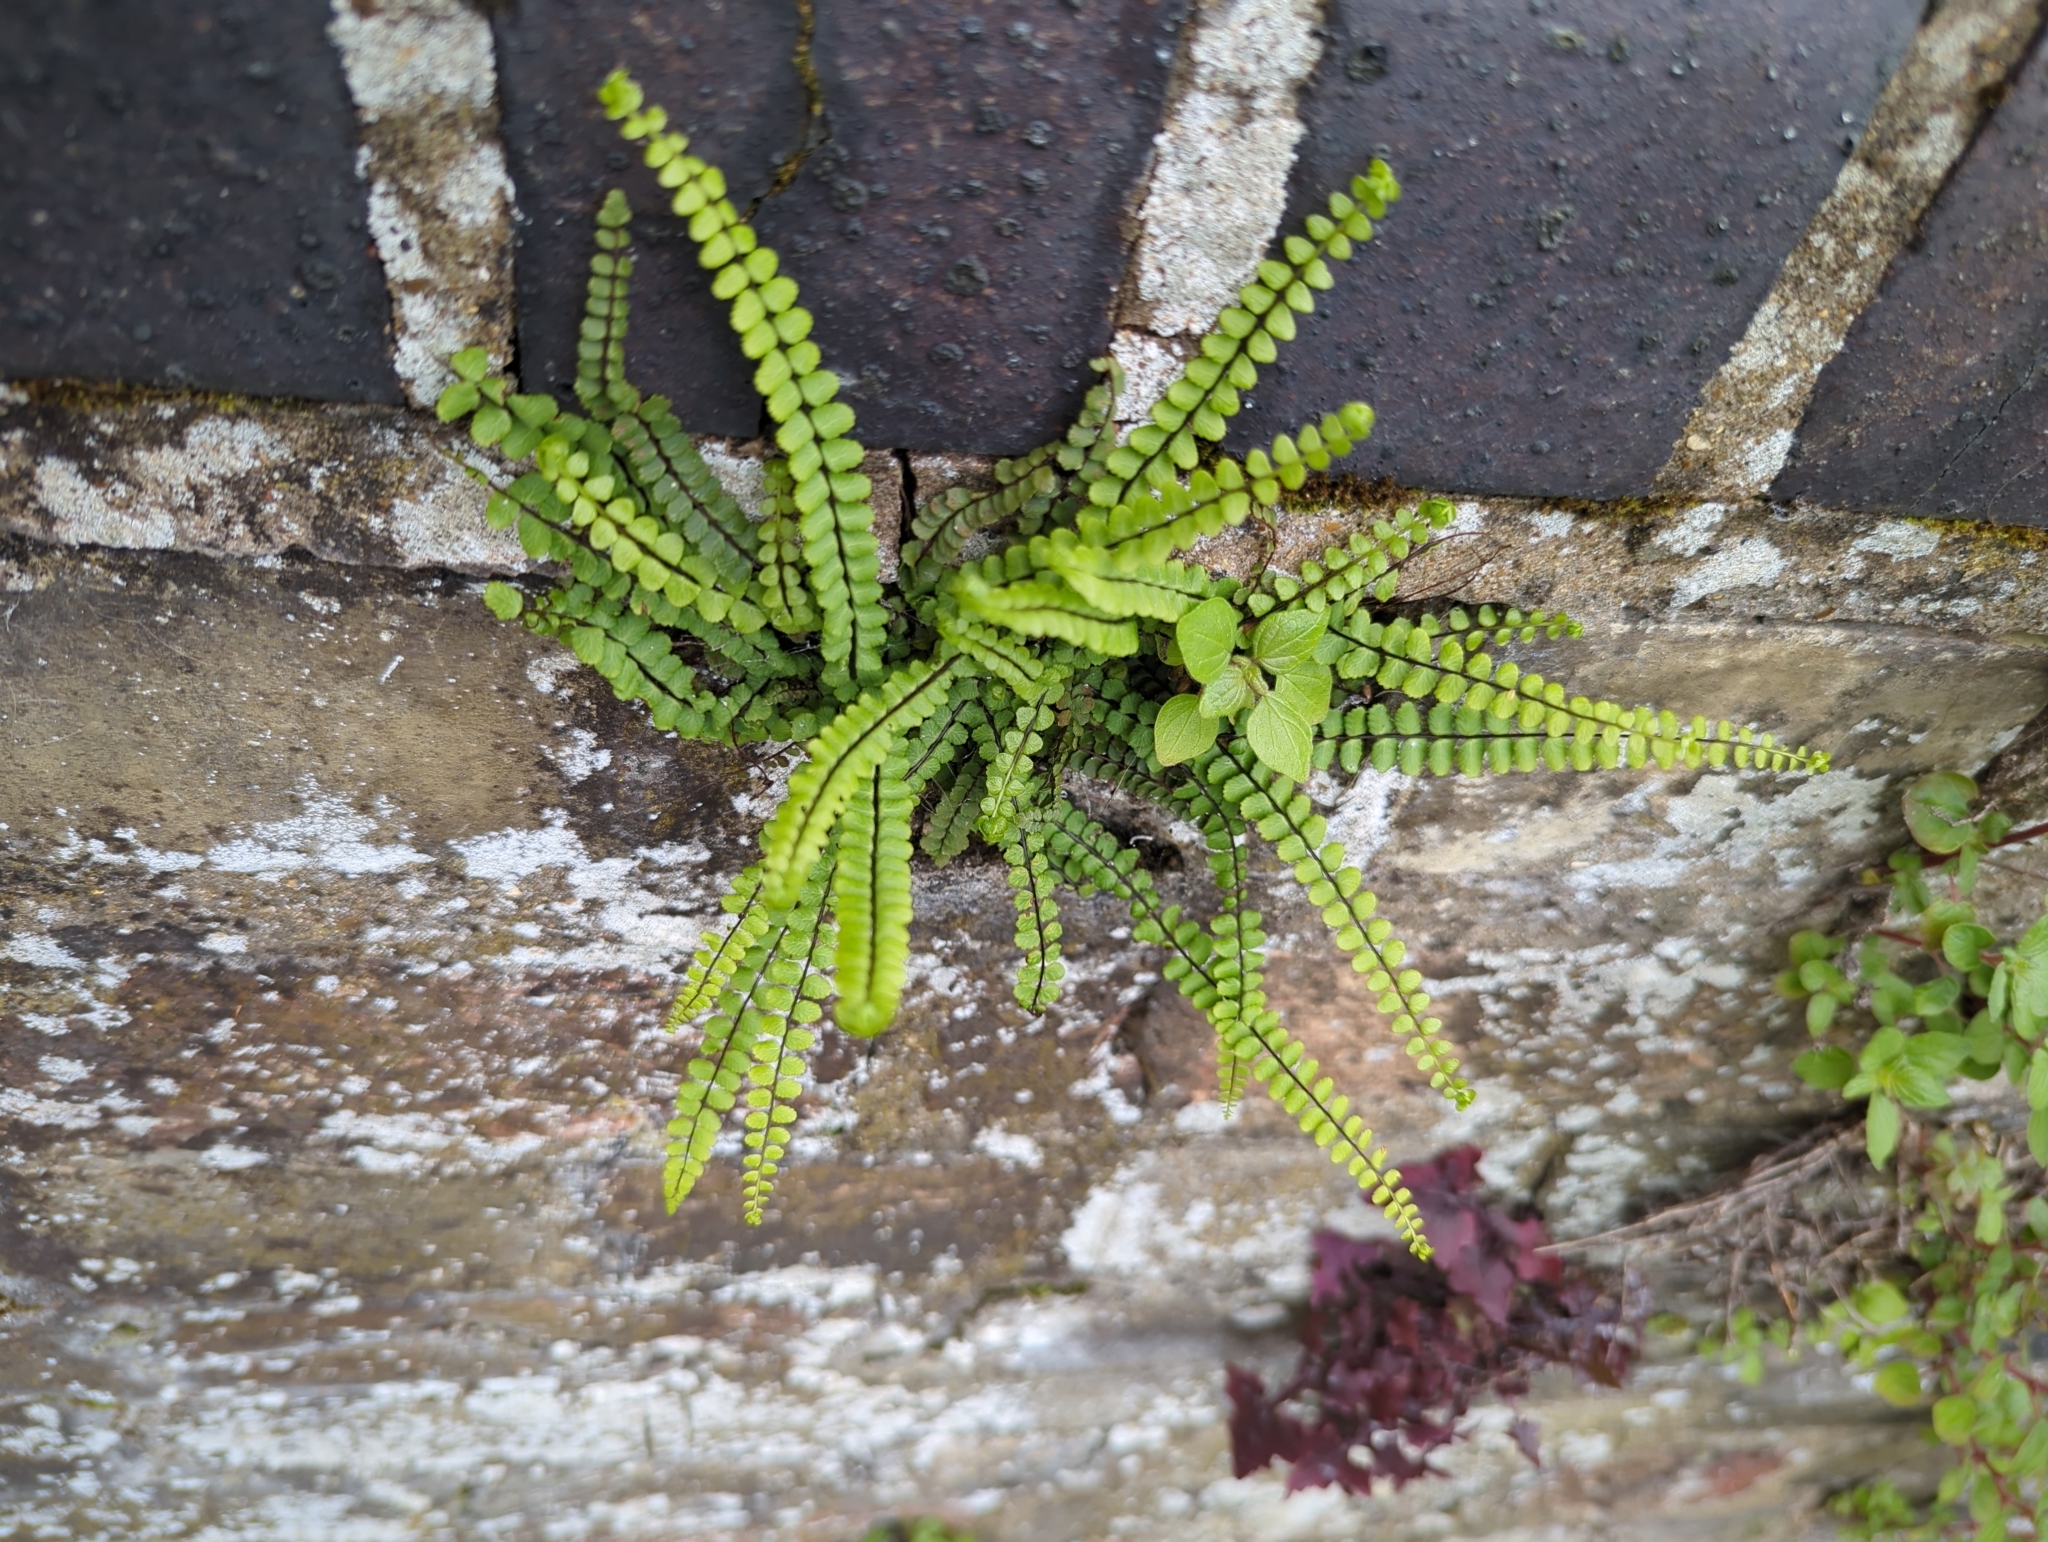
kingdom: Plantae
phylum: Tracheophyta
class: Polypodiopsida
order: Polypodiales
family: Aspleniaceae
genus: Asplenium
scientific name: Asplenium trichomanes
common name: Maidenhair spleenwort
